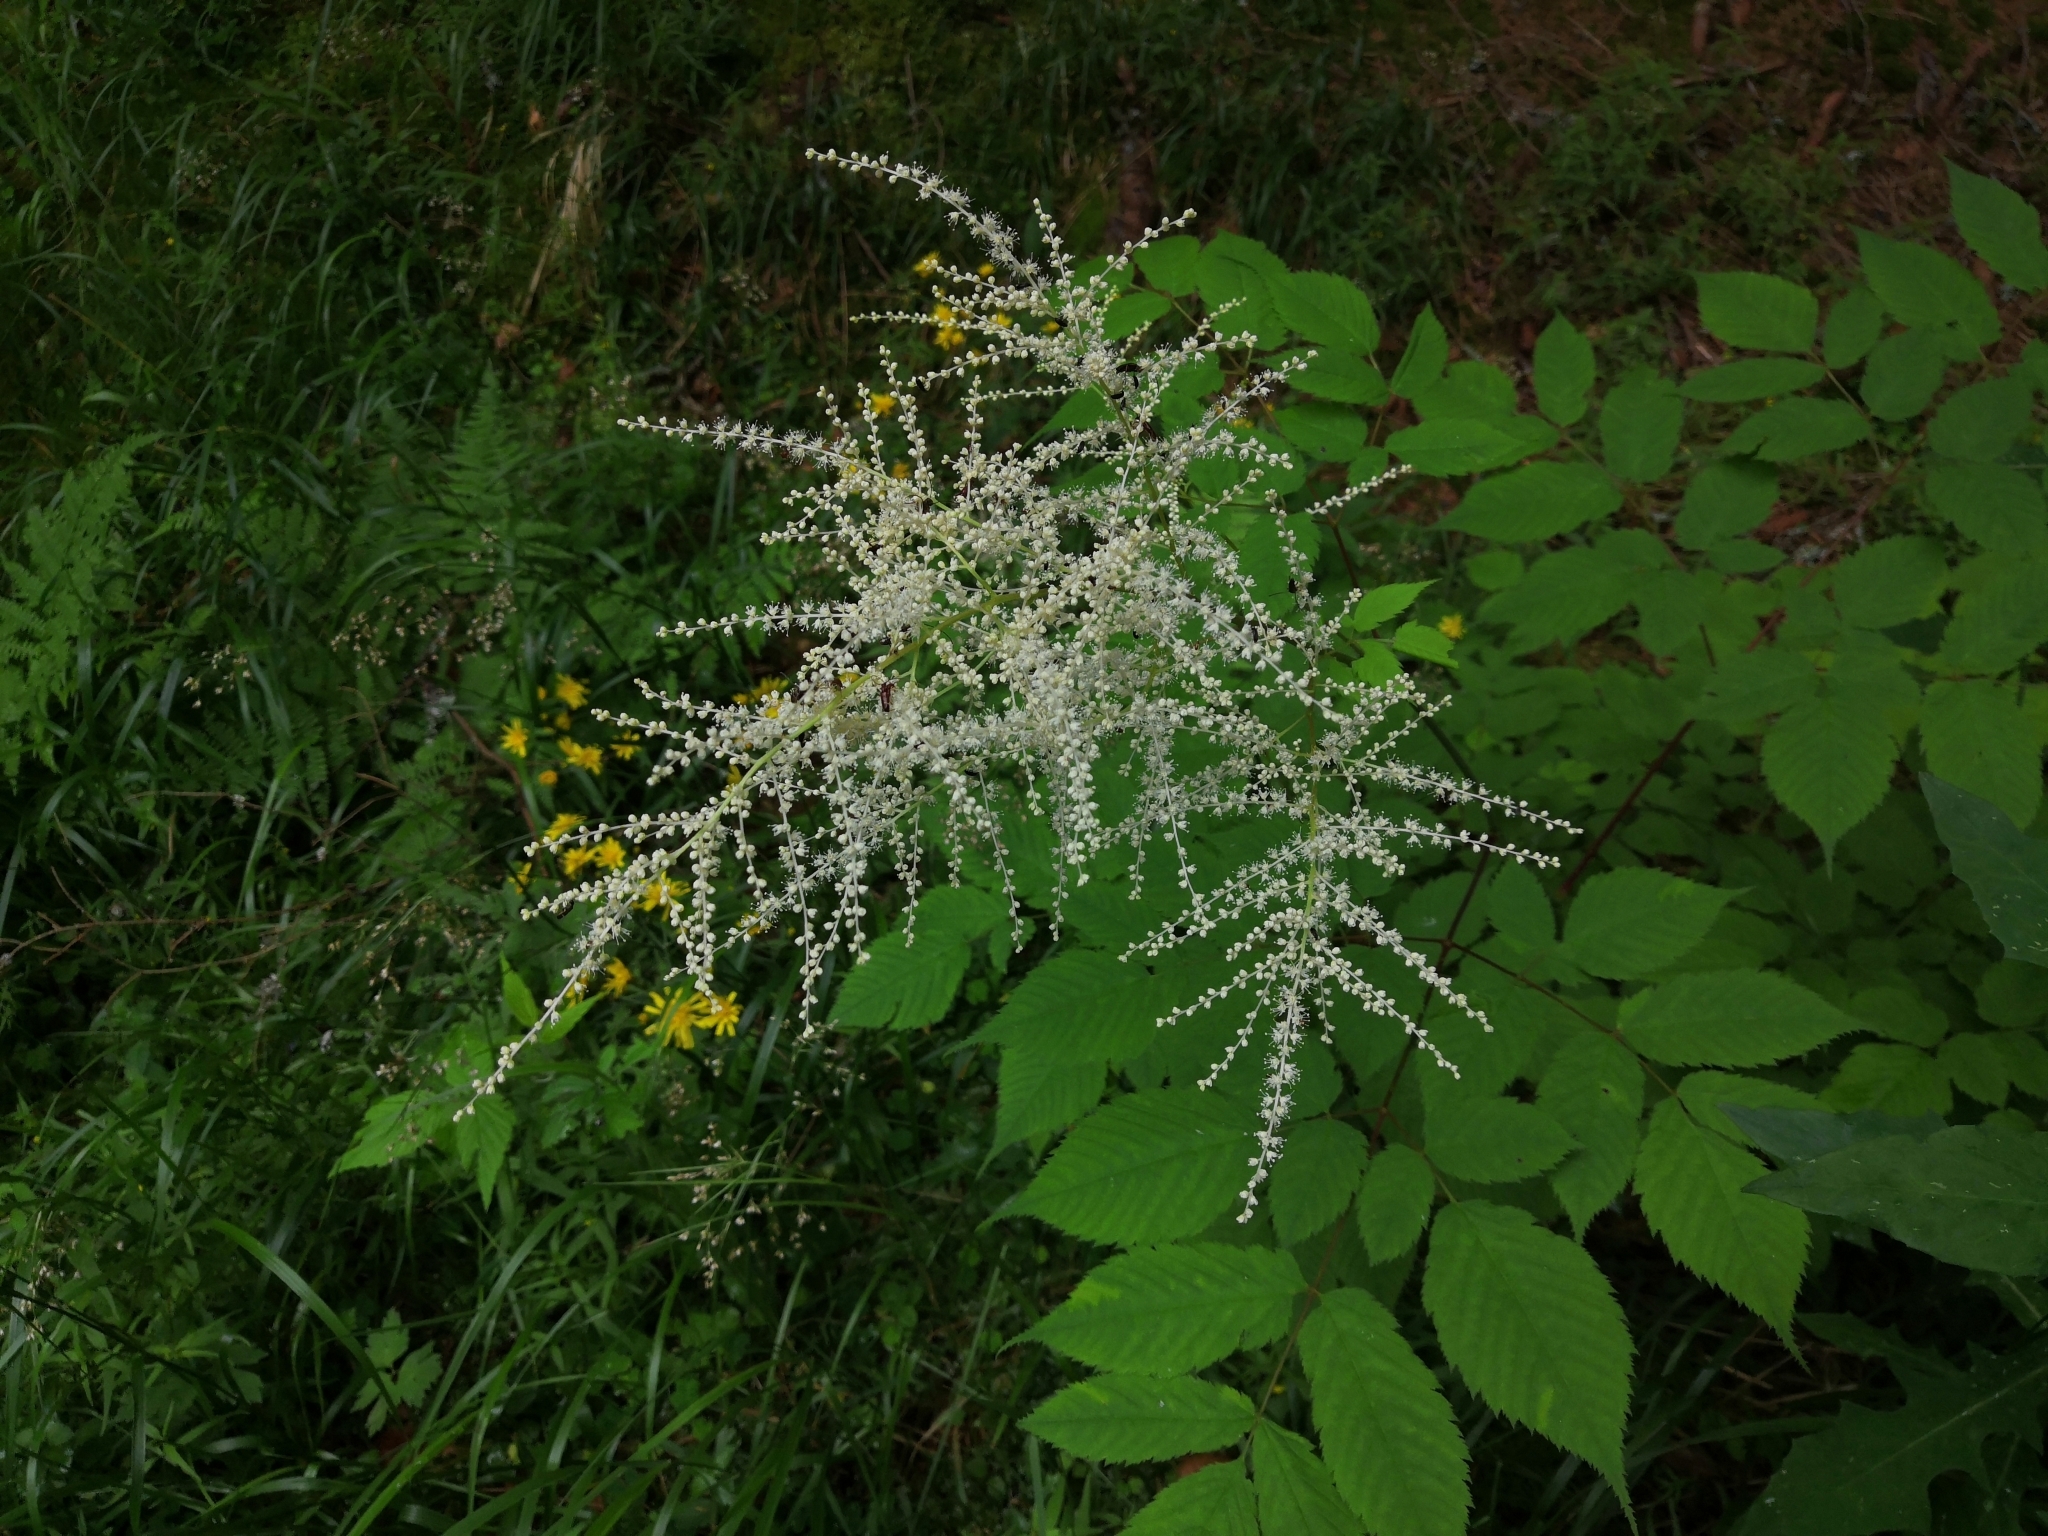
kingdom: Plantae
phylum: Tracheophyta
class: Magnoliopsida
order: Rosales
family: Rosaceae
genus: Aruncus
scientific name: Aruncus dioicus
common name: Buck's-beard
